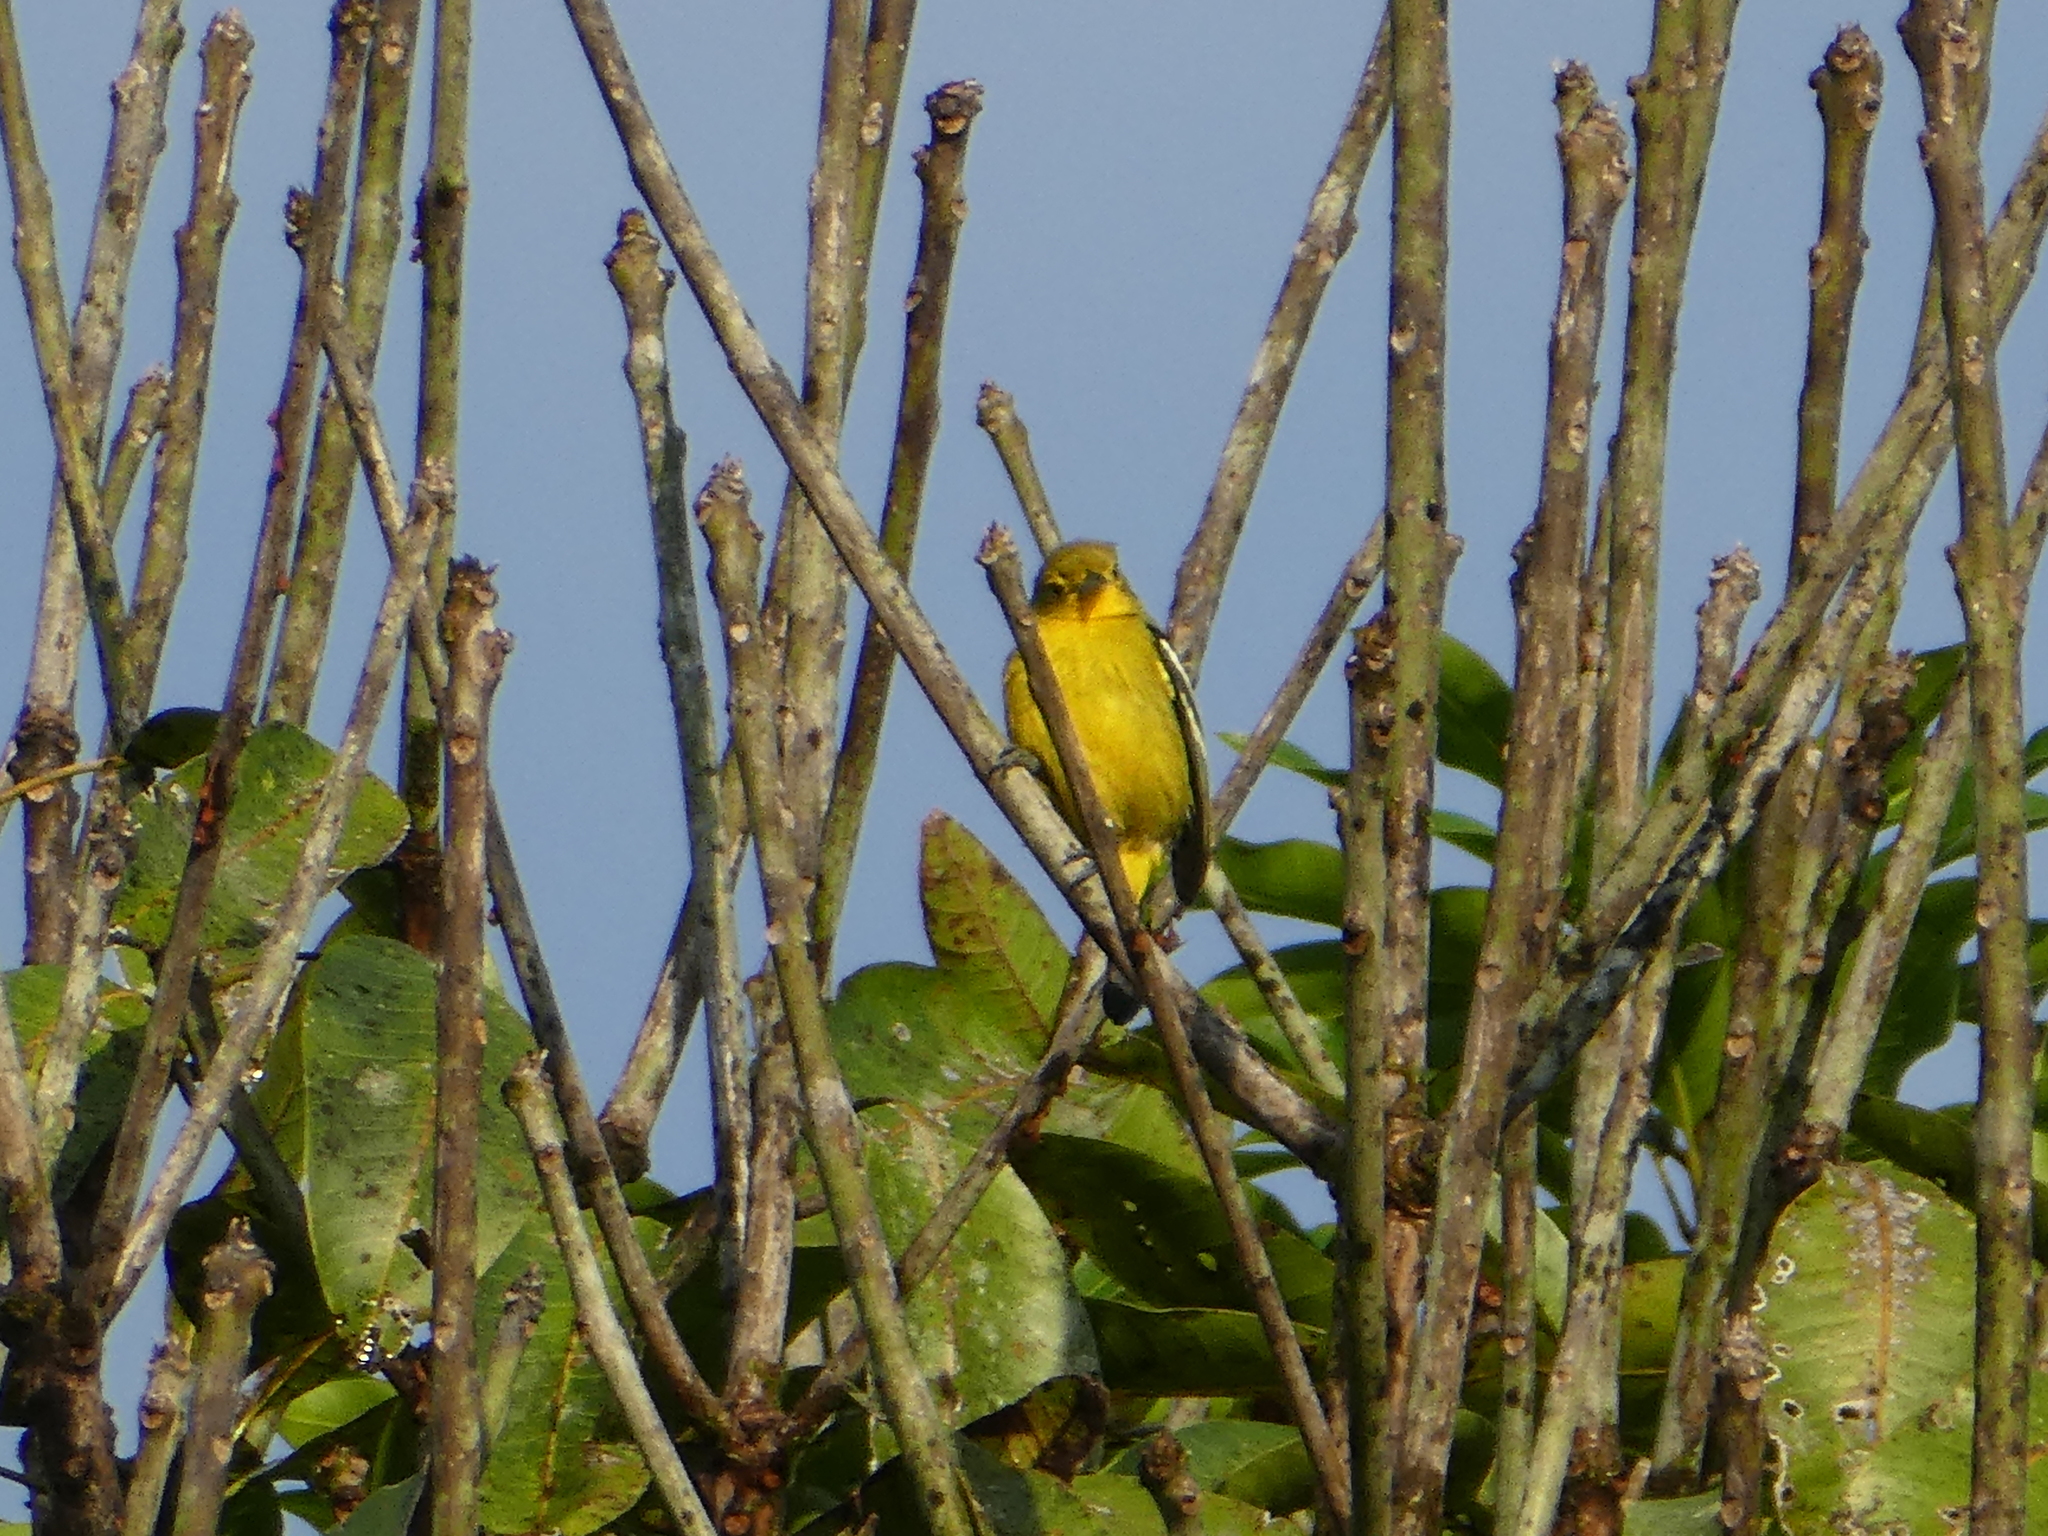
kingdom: Animalia
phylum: Chordata
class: Aves
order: Passeriformes
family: Aegithinidae
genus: Aegithina
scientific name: Aegithina tiphia
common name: Common iora
